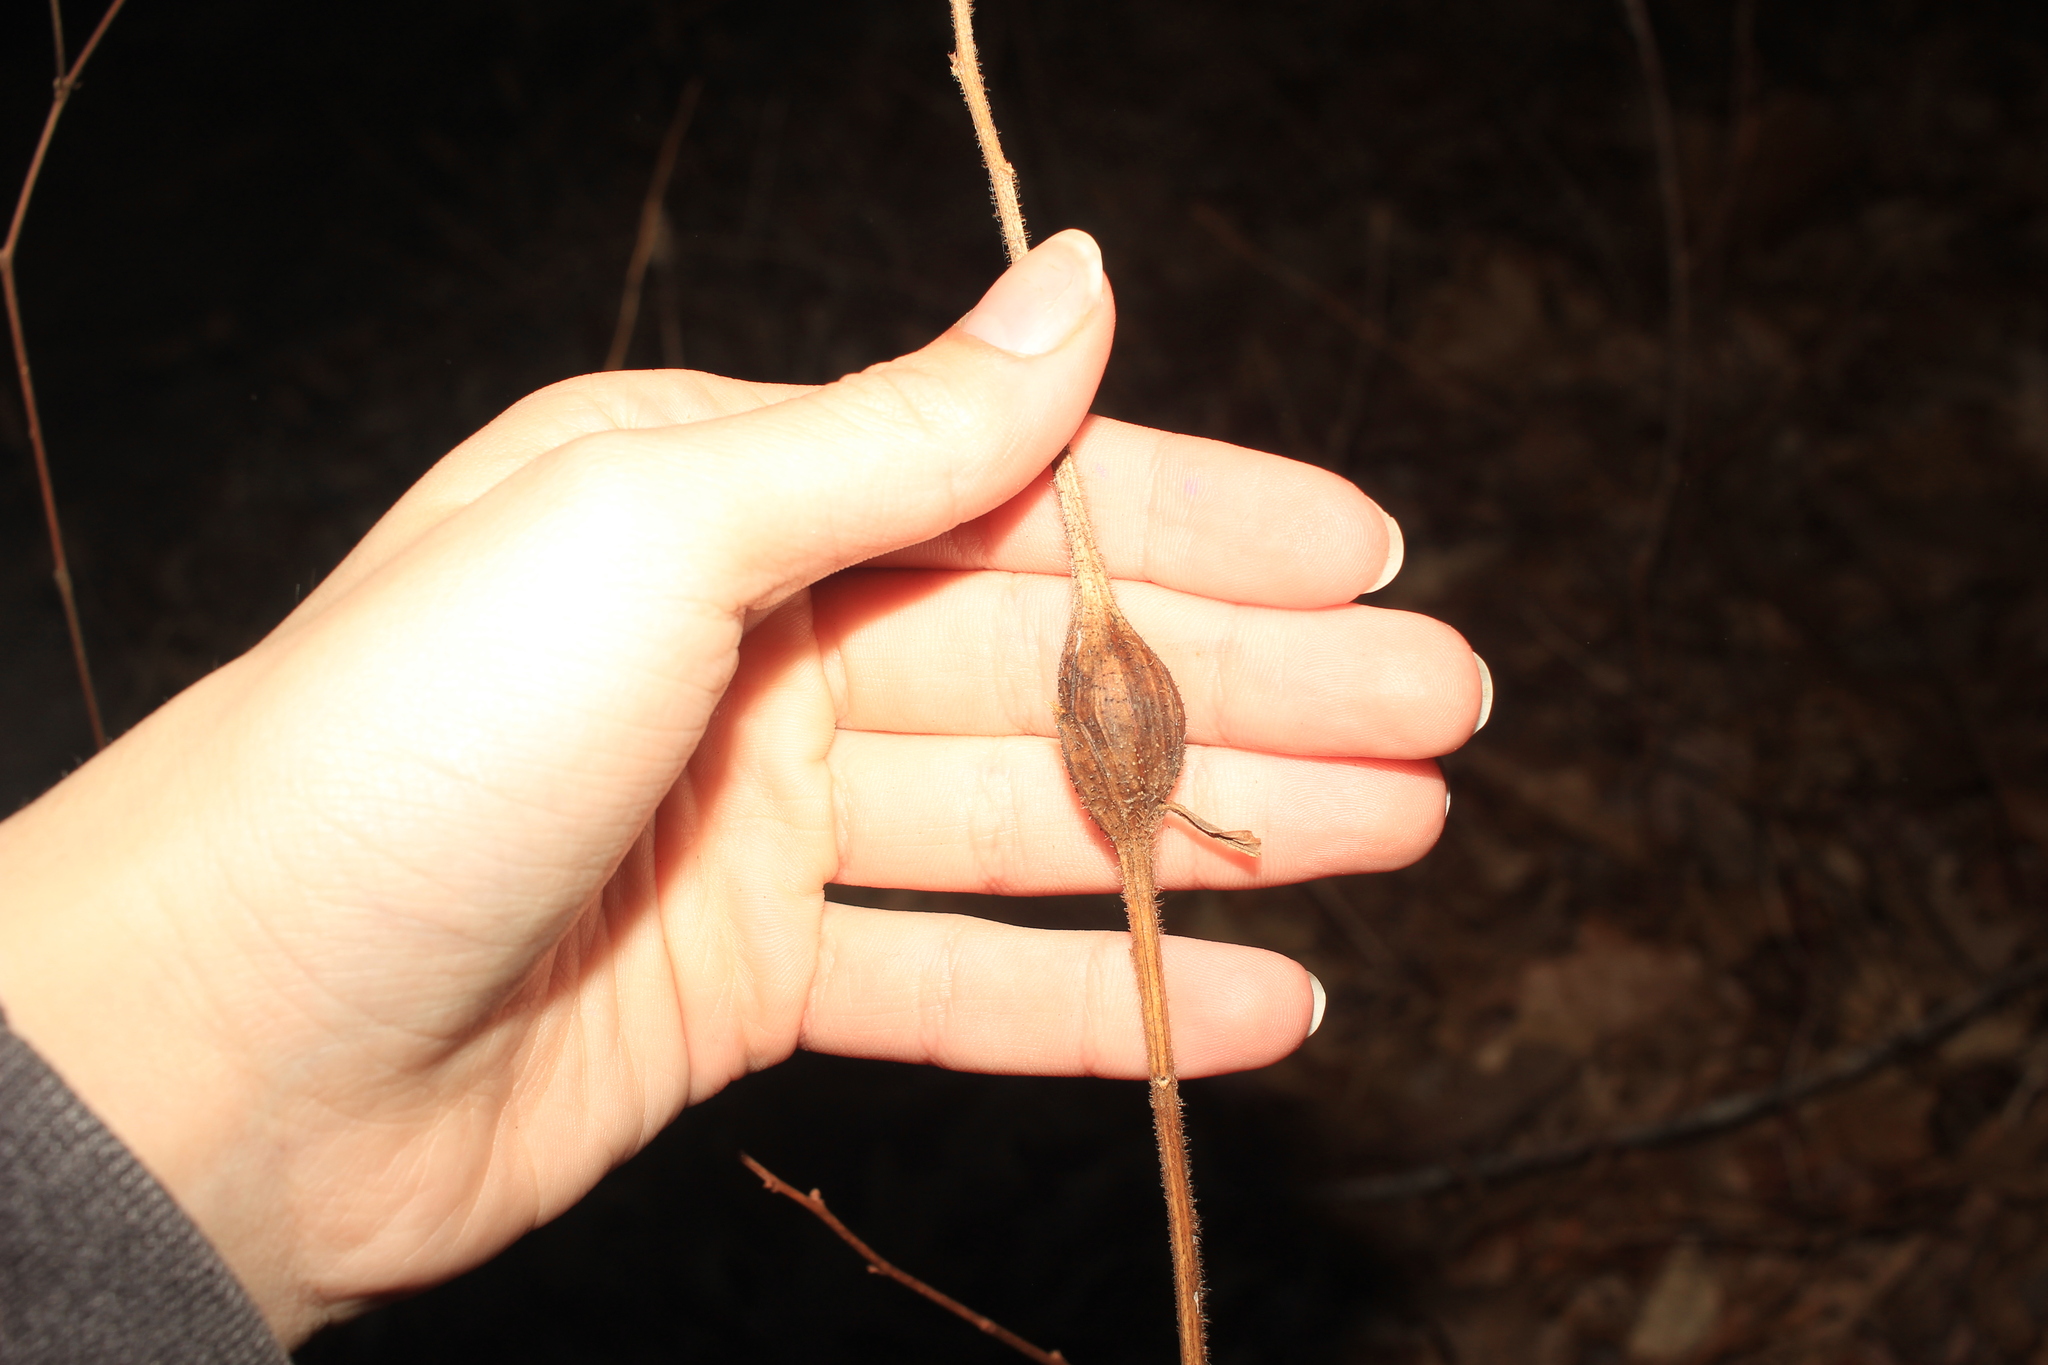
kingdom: Animalia
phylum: Arthropoda
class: Insecta
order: Lepidoptera
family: Gelechiidae
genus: Gnorimoschema
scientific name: Gnorimoschema gallaesolidaginis
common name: Goldenrod elliptical-gall moth
